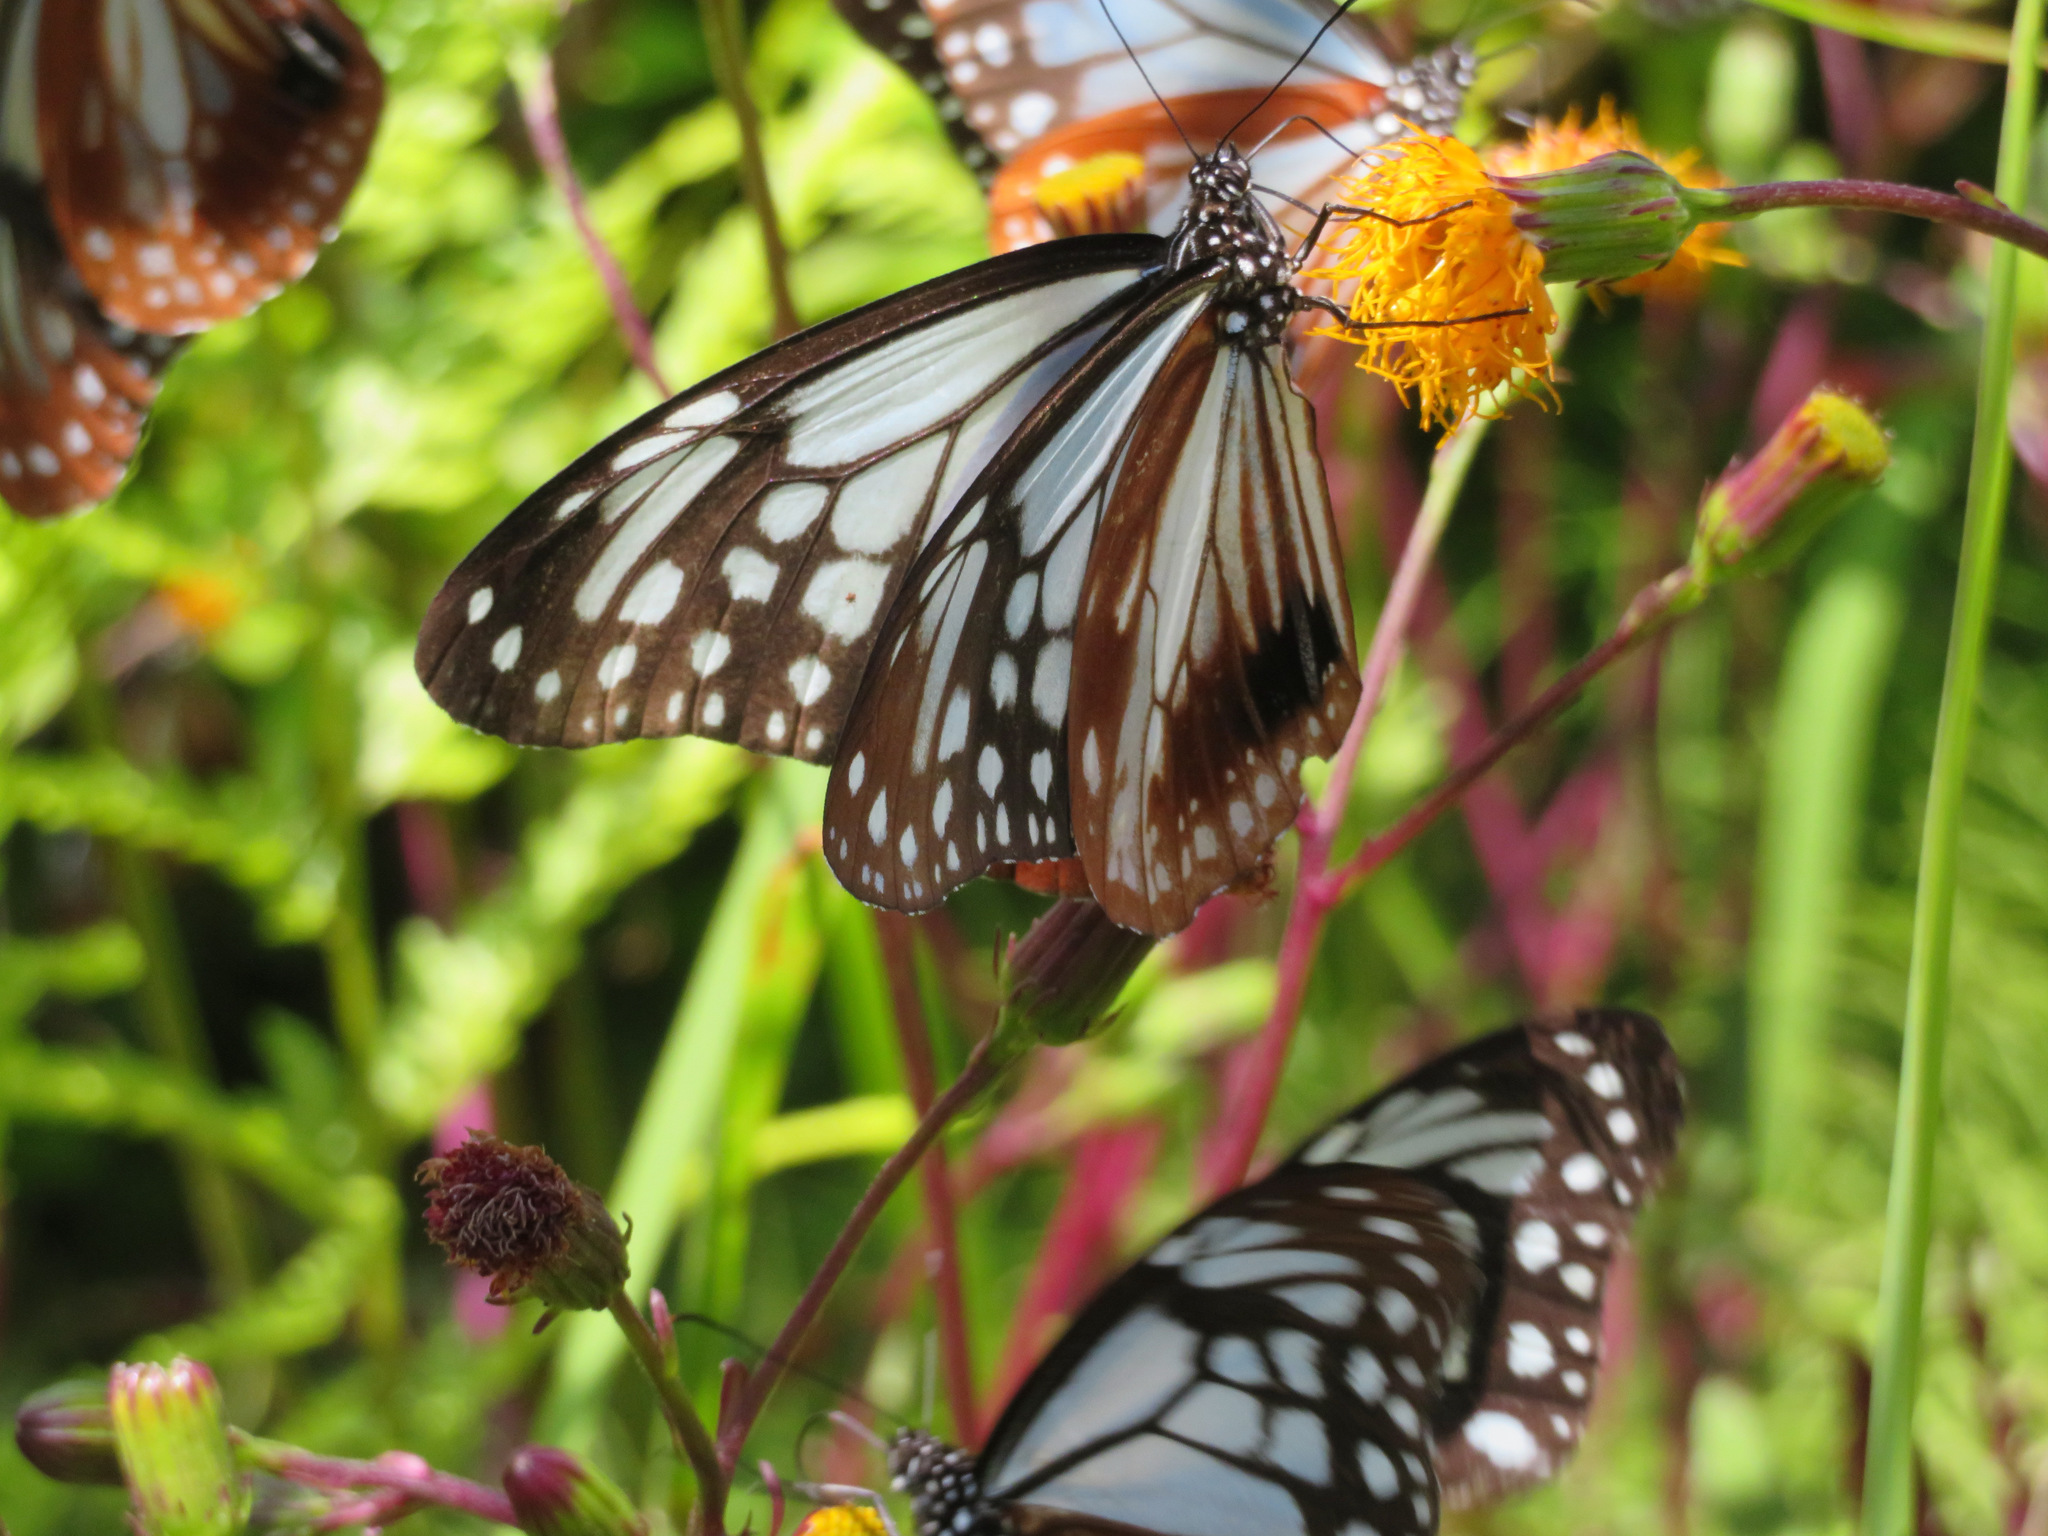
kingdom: Animalia
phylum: Arthropoda
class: Insecta
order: Lepidoptera
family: Nymphalidae
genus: Parantica
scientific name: Parantica sita
